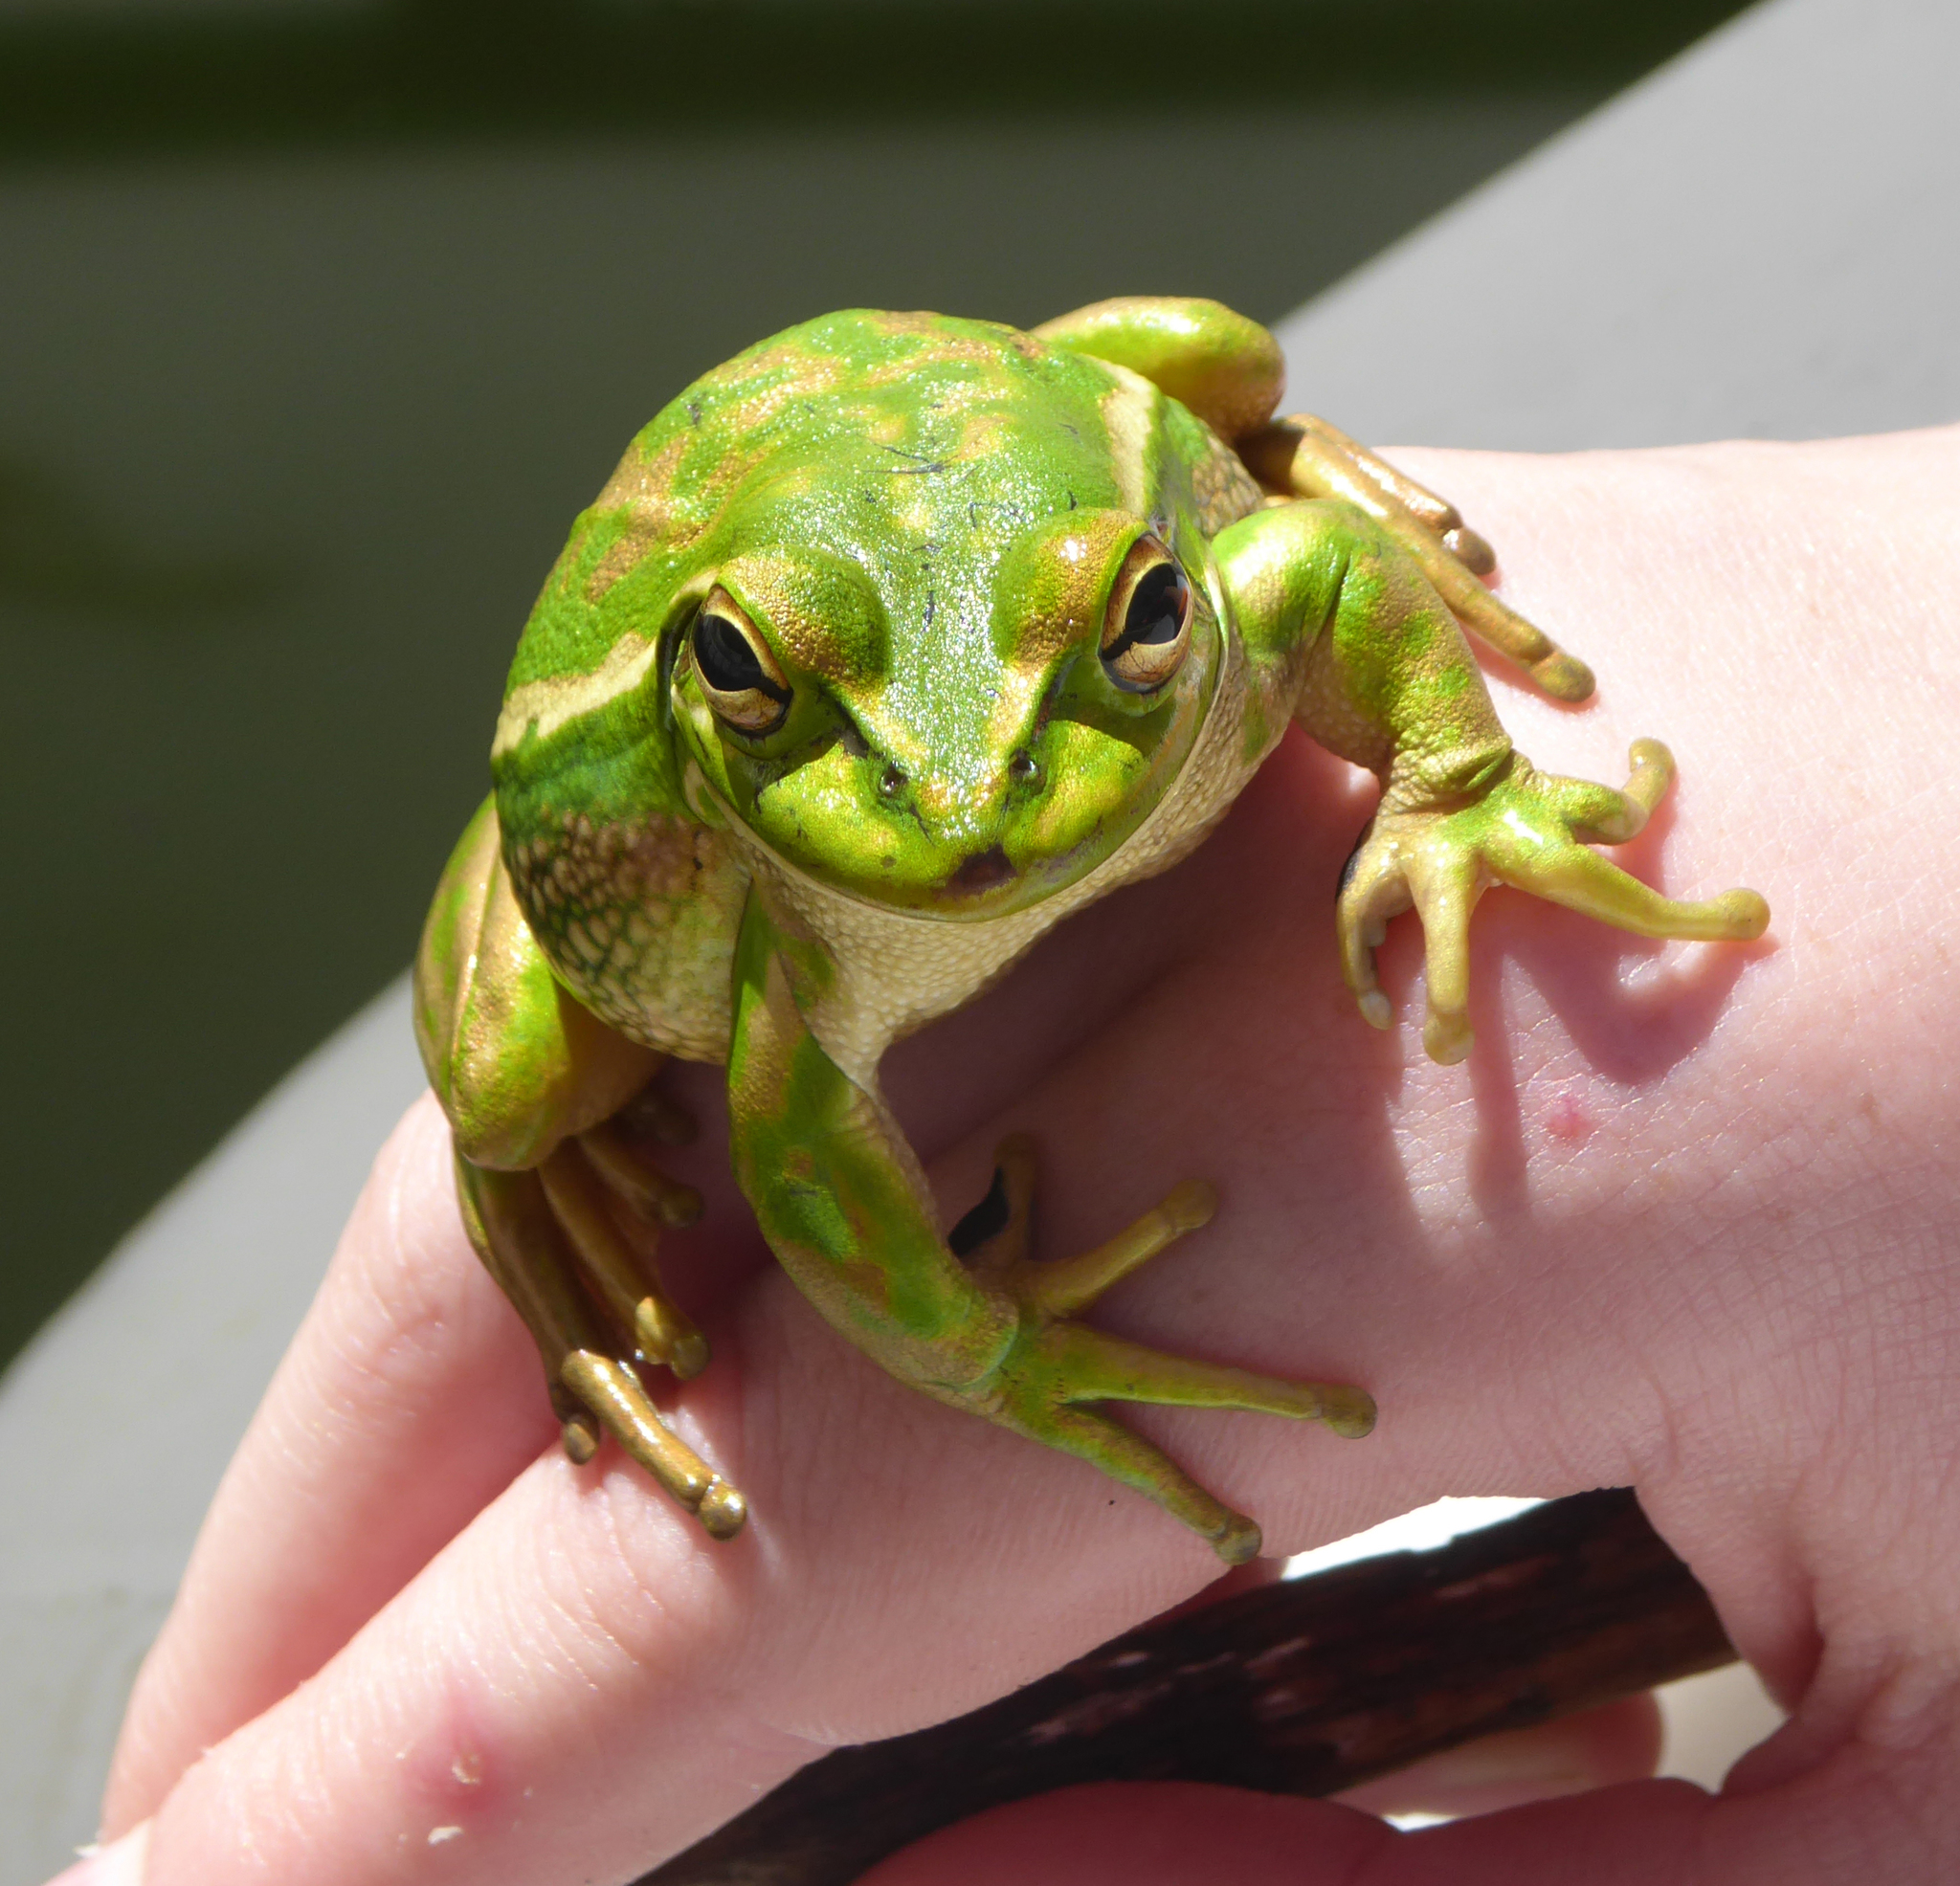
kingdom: Animalia
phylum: Chordata
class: Amphibia
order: Anura
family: Pelodryadidae
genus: Ranoidea
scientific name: Ranoidea aurea
